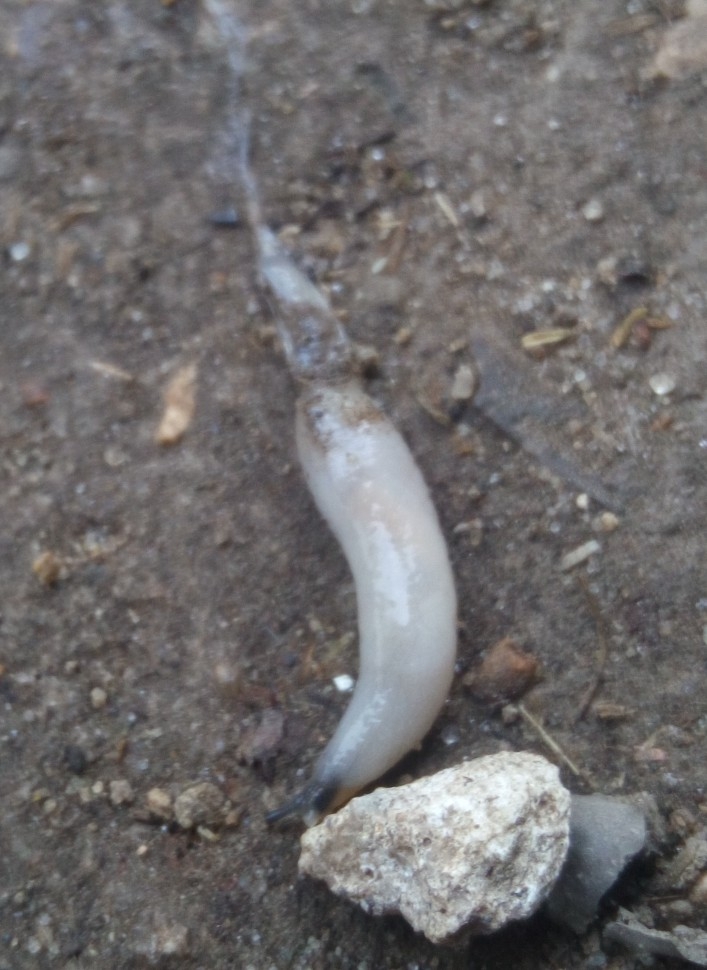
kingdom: Animalia
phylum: Mollusca
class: Gastropoda
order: Stylommatophora
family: Boettgerillidae
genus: Boettgerilla
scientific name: Boettgerilla pallens
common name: Worm slug
